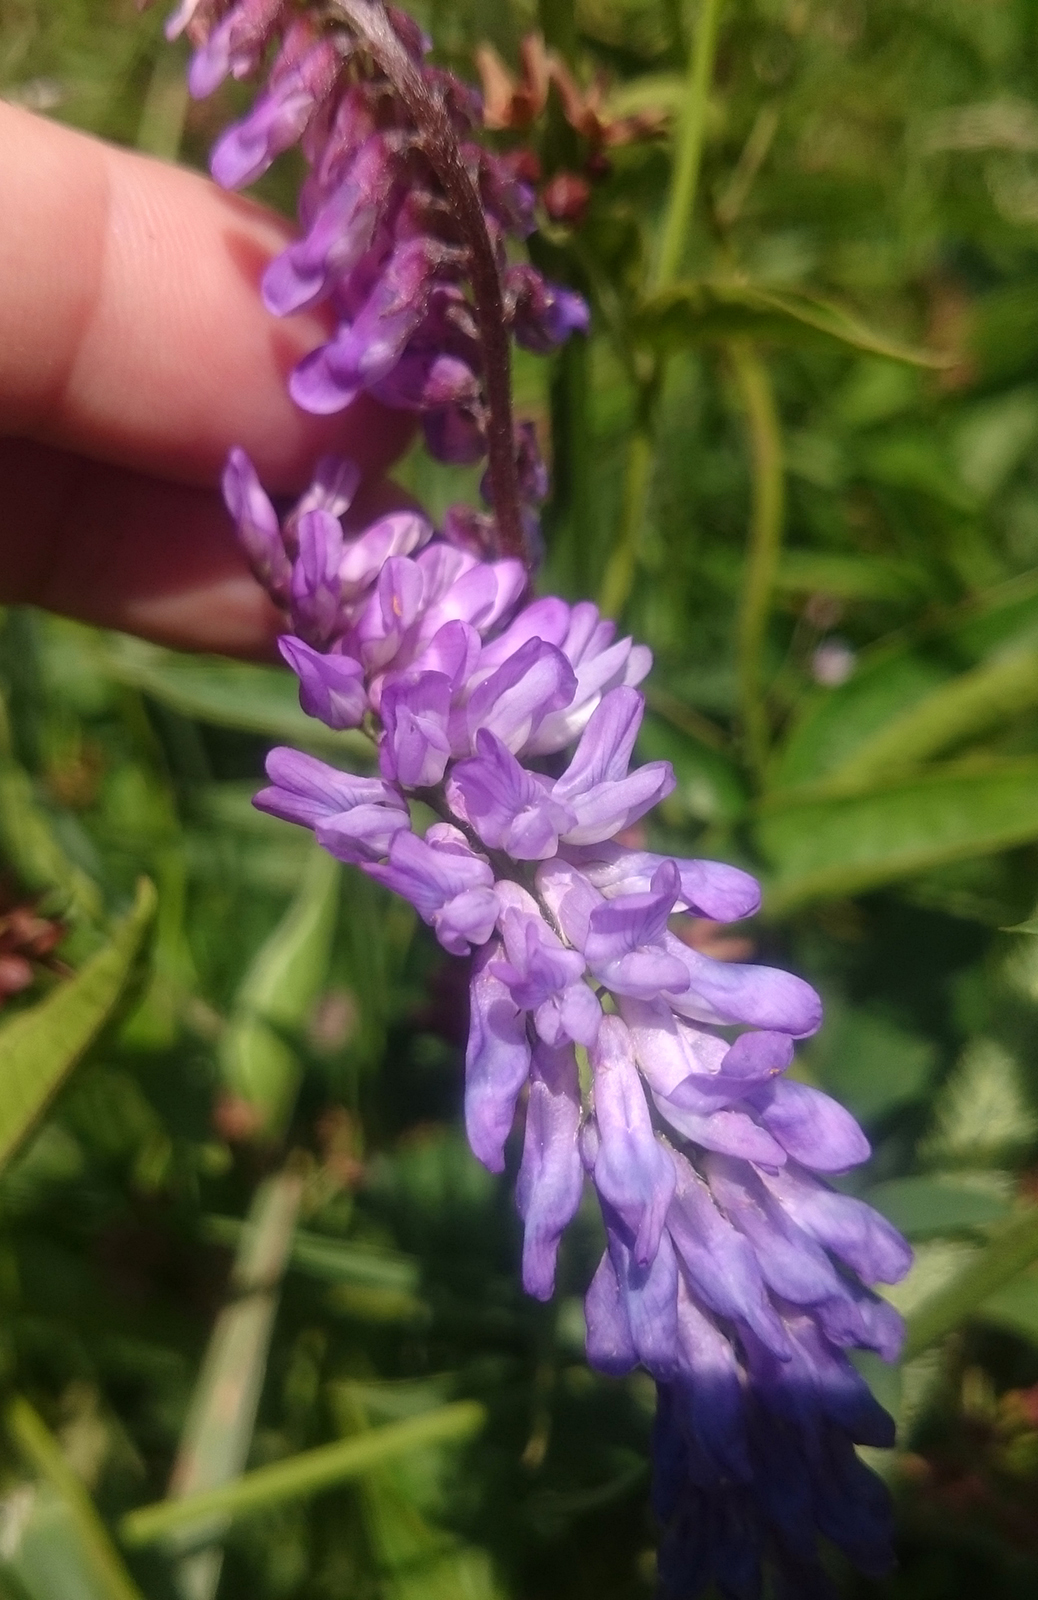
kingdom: Plantae
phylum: Tracheophyta
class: Magnoliopsida
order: Fabales
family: Fabaceae
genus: Vicia
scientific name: Vicia cracca
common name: Bird vetch
